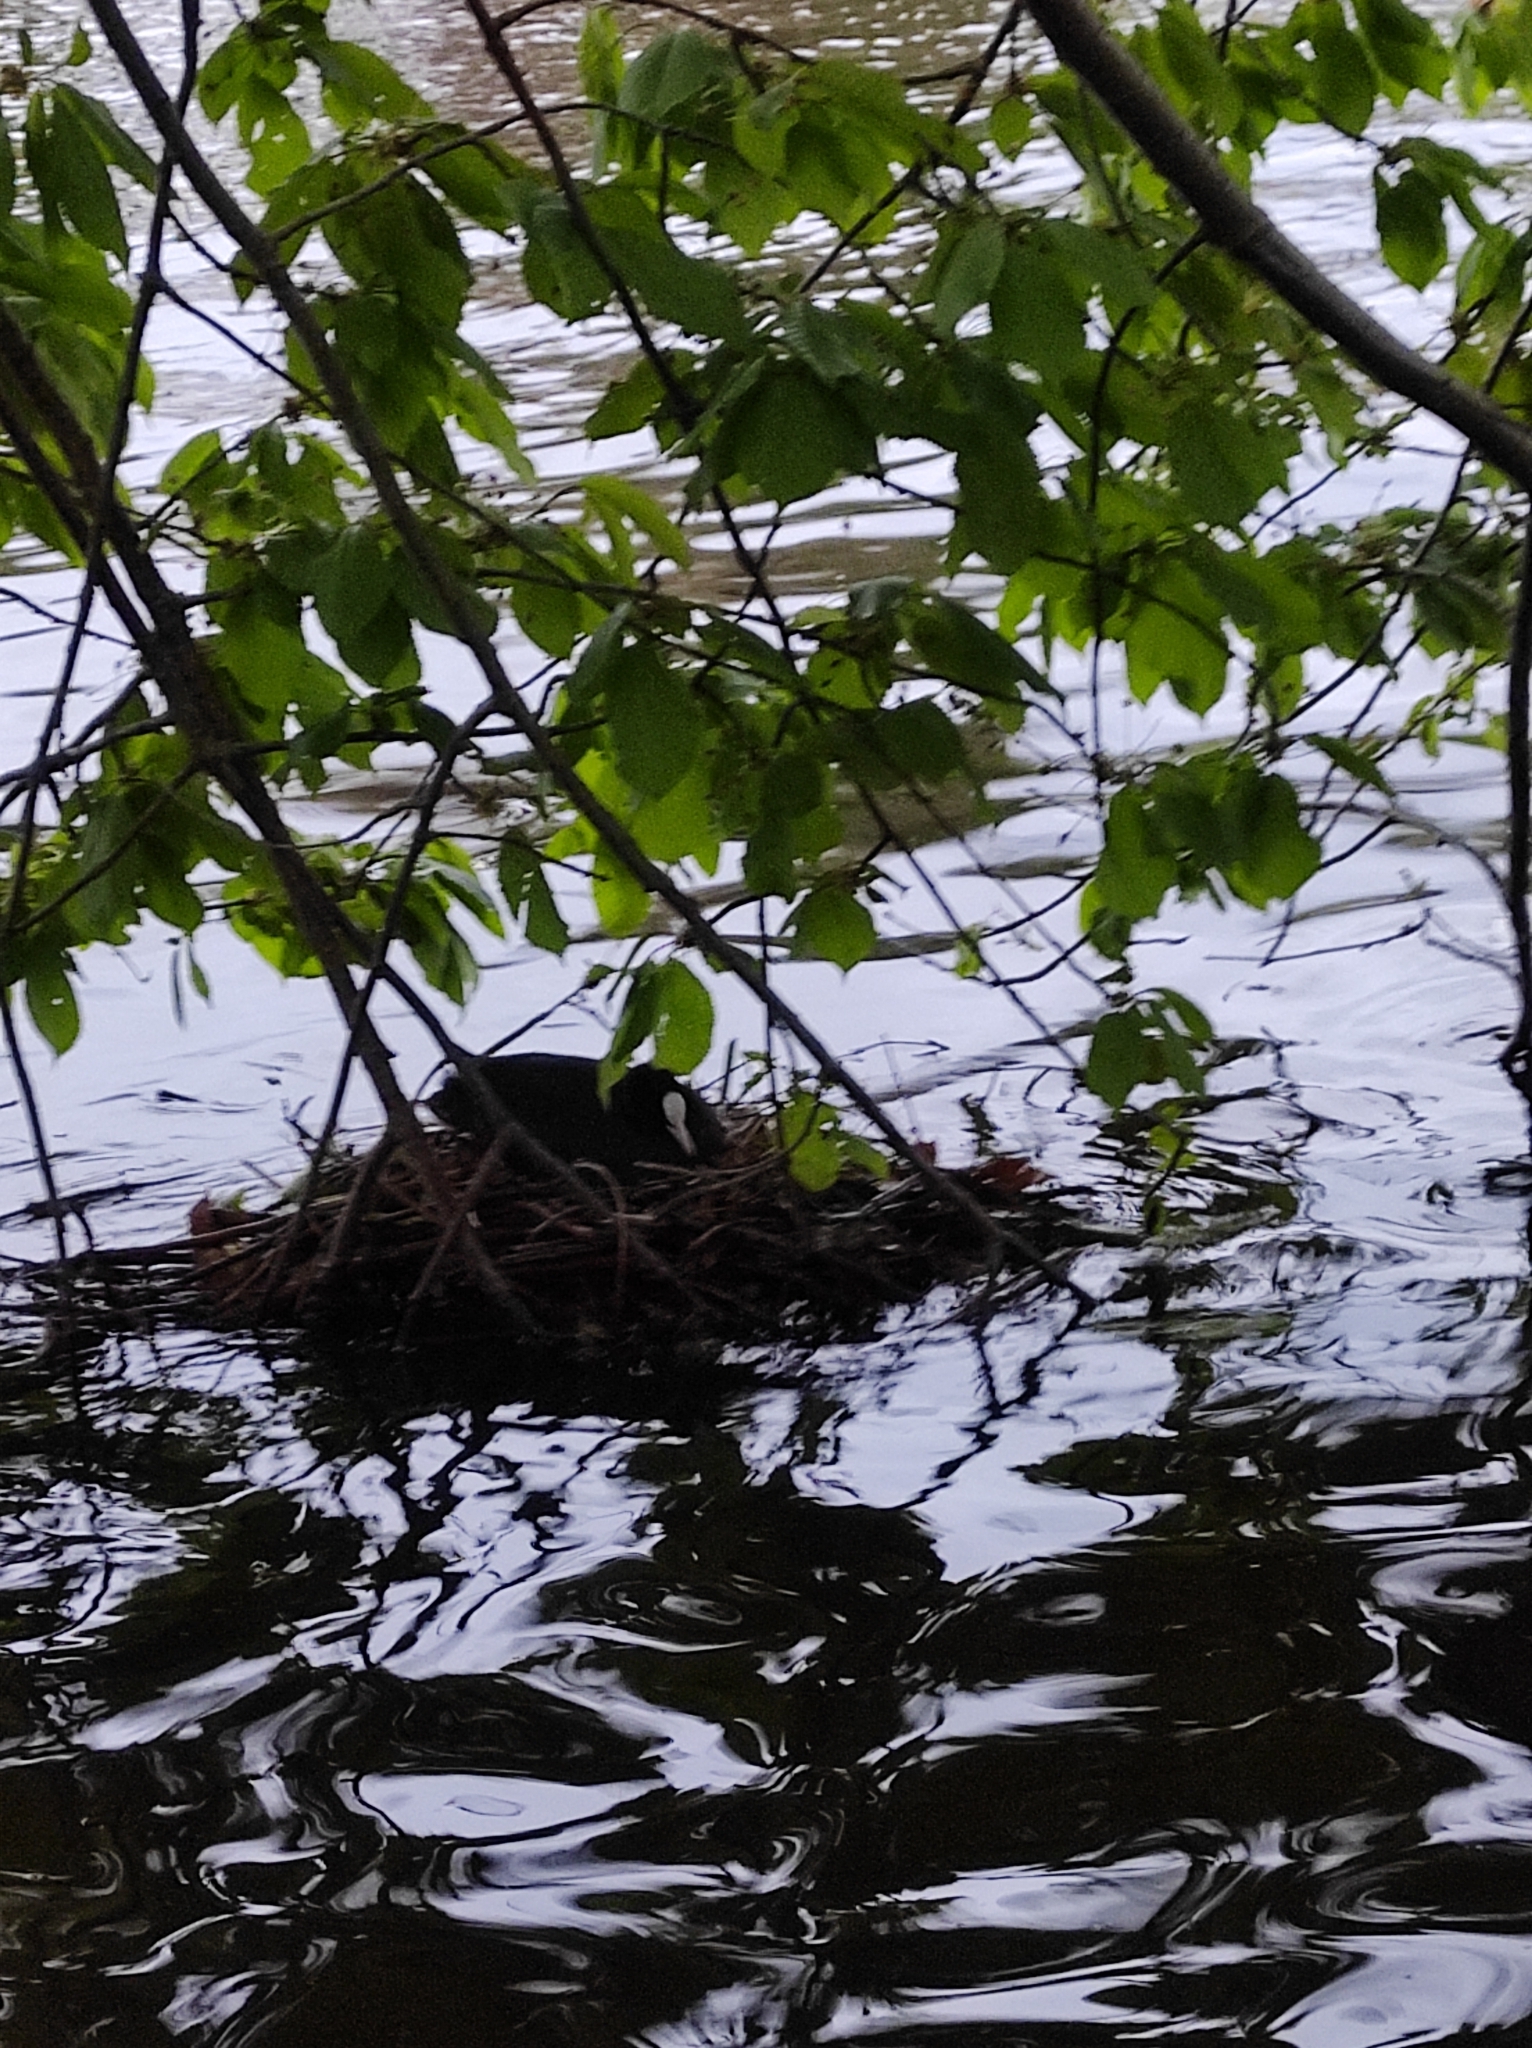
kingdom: Animalia
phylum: Chordata
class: Aves
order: Gruiformes
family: Rallidae
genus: Fulica
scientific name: Fulica atra
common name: Eurasian coot
